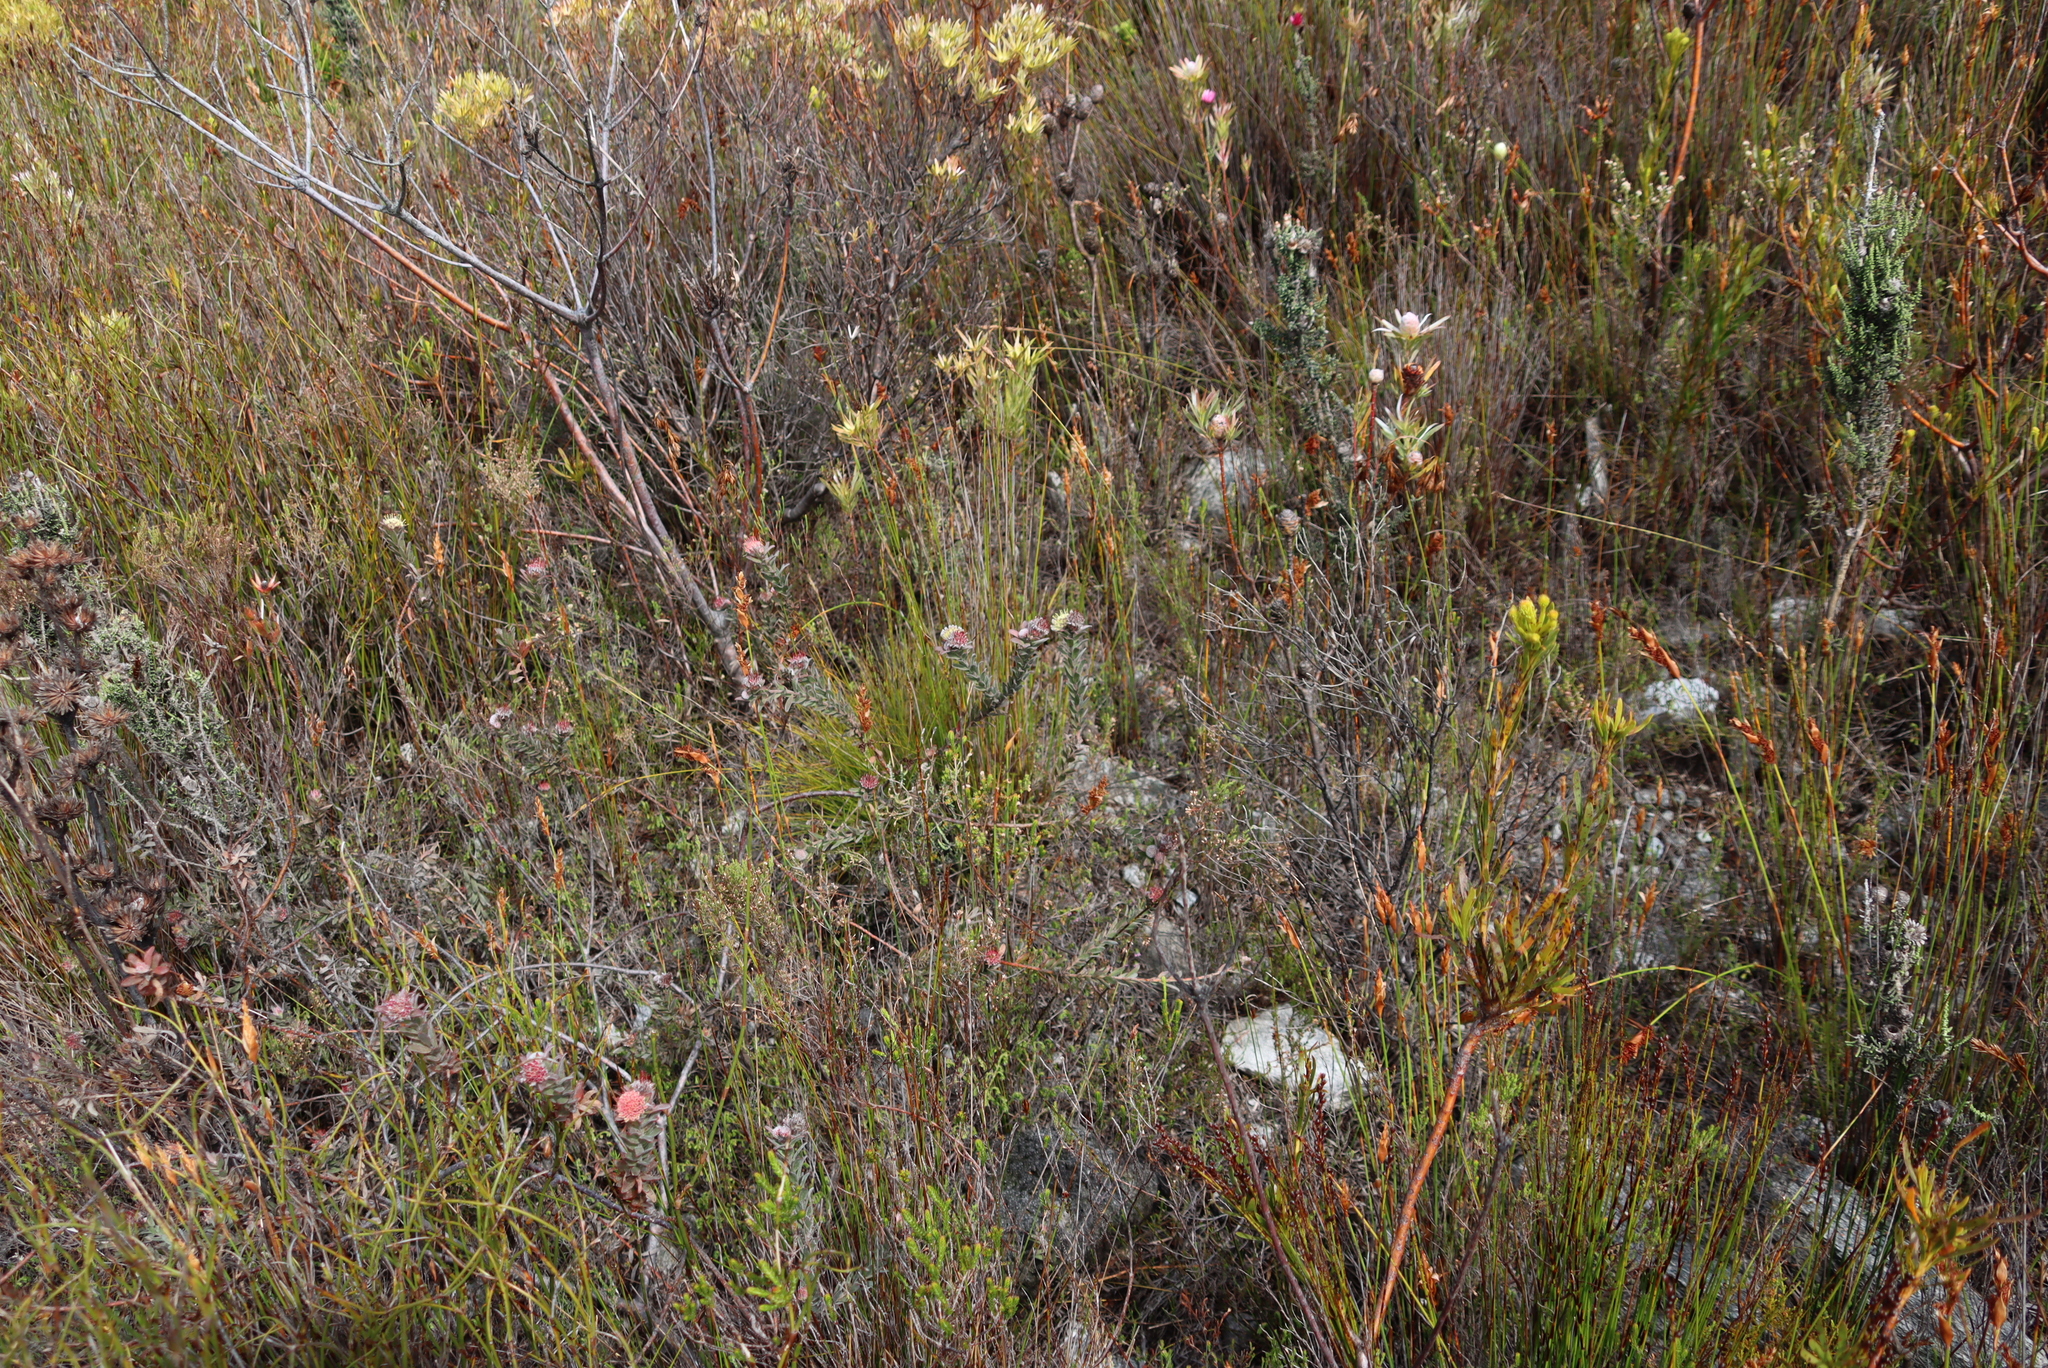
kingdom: Plantae
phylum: Tracheophyta
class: Magnoliopsida
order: Proteales
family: Proteaceae
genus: Leucospermum
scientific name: Leucospermum truncatulum
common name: Oval-leaf pincushion
